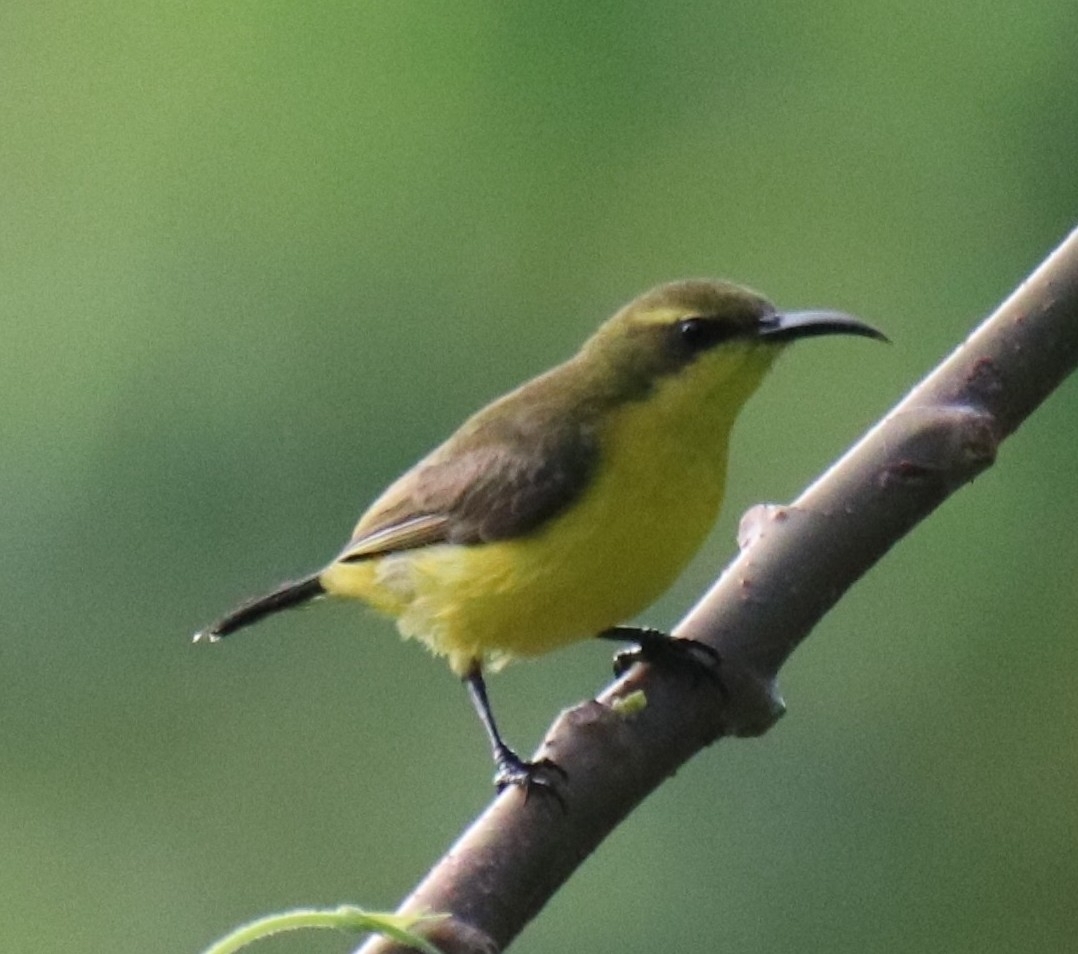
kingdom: Animalia
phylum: Chordata
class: Aves
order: Passeriformes
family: Nectariniidae
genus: Cinnyris
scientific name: Cinnyris
